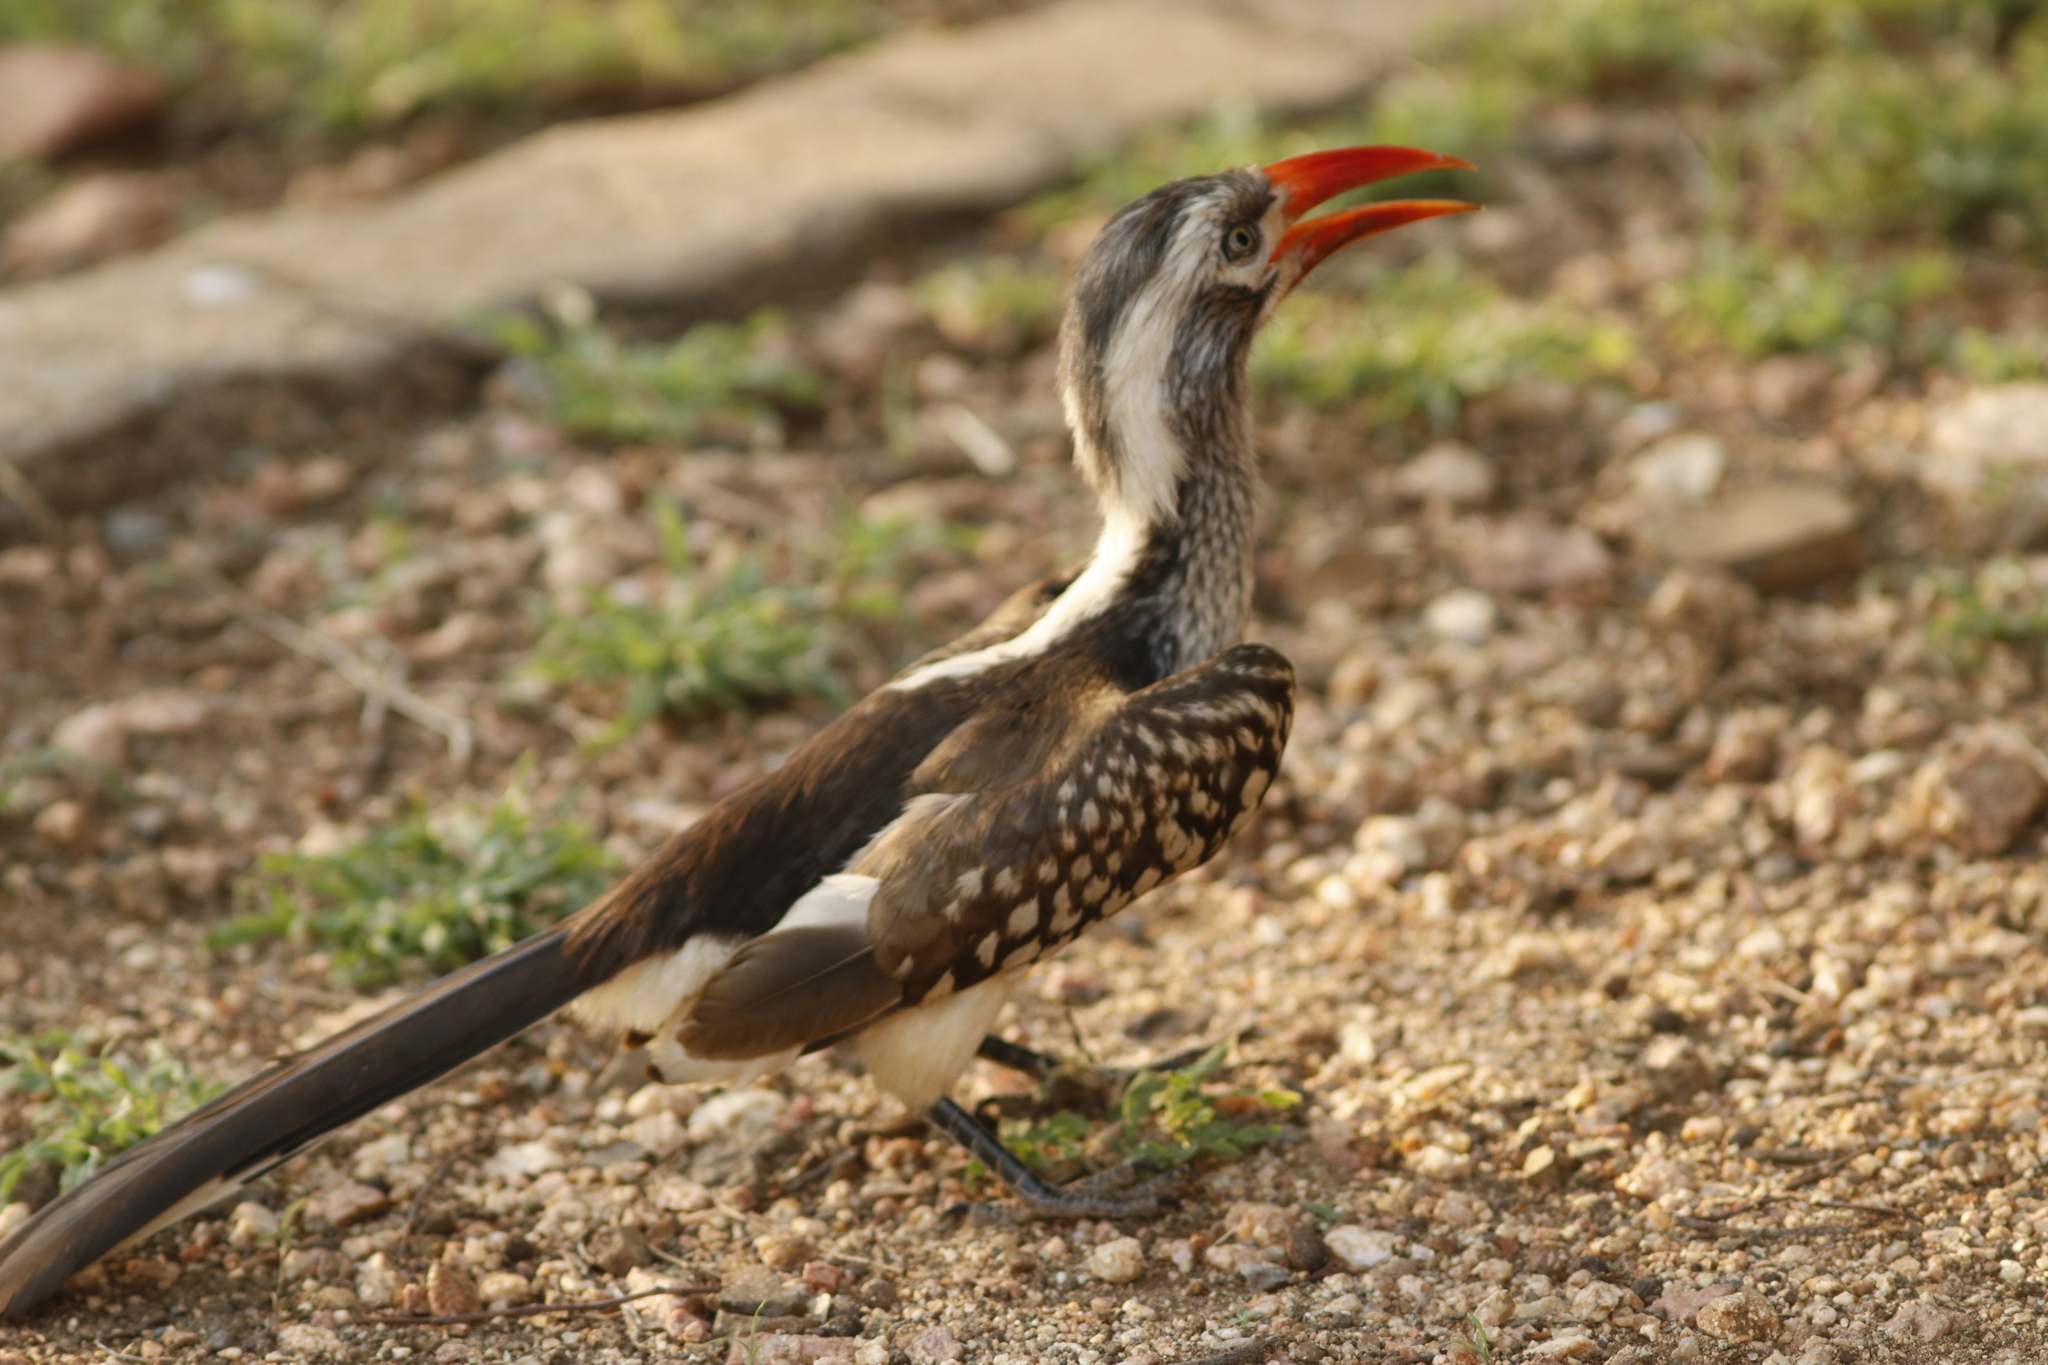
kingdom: Animalia
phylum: Chordata
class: Aves
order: Bucerotiformes
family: Bucerotidae
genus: Tockus
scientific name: Tockus rufirostris
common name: Southern red-billed hornbill
